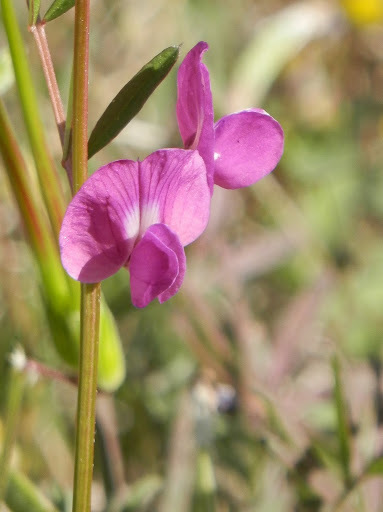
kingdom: Plantae
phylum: Tracheophyta
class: Magnoliopsida
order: Fabales
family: Fabaceae
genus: Vicia
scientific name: Vicia sativa
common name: Garden vetch
